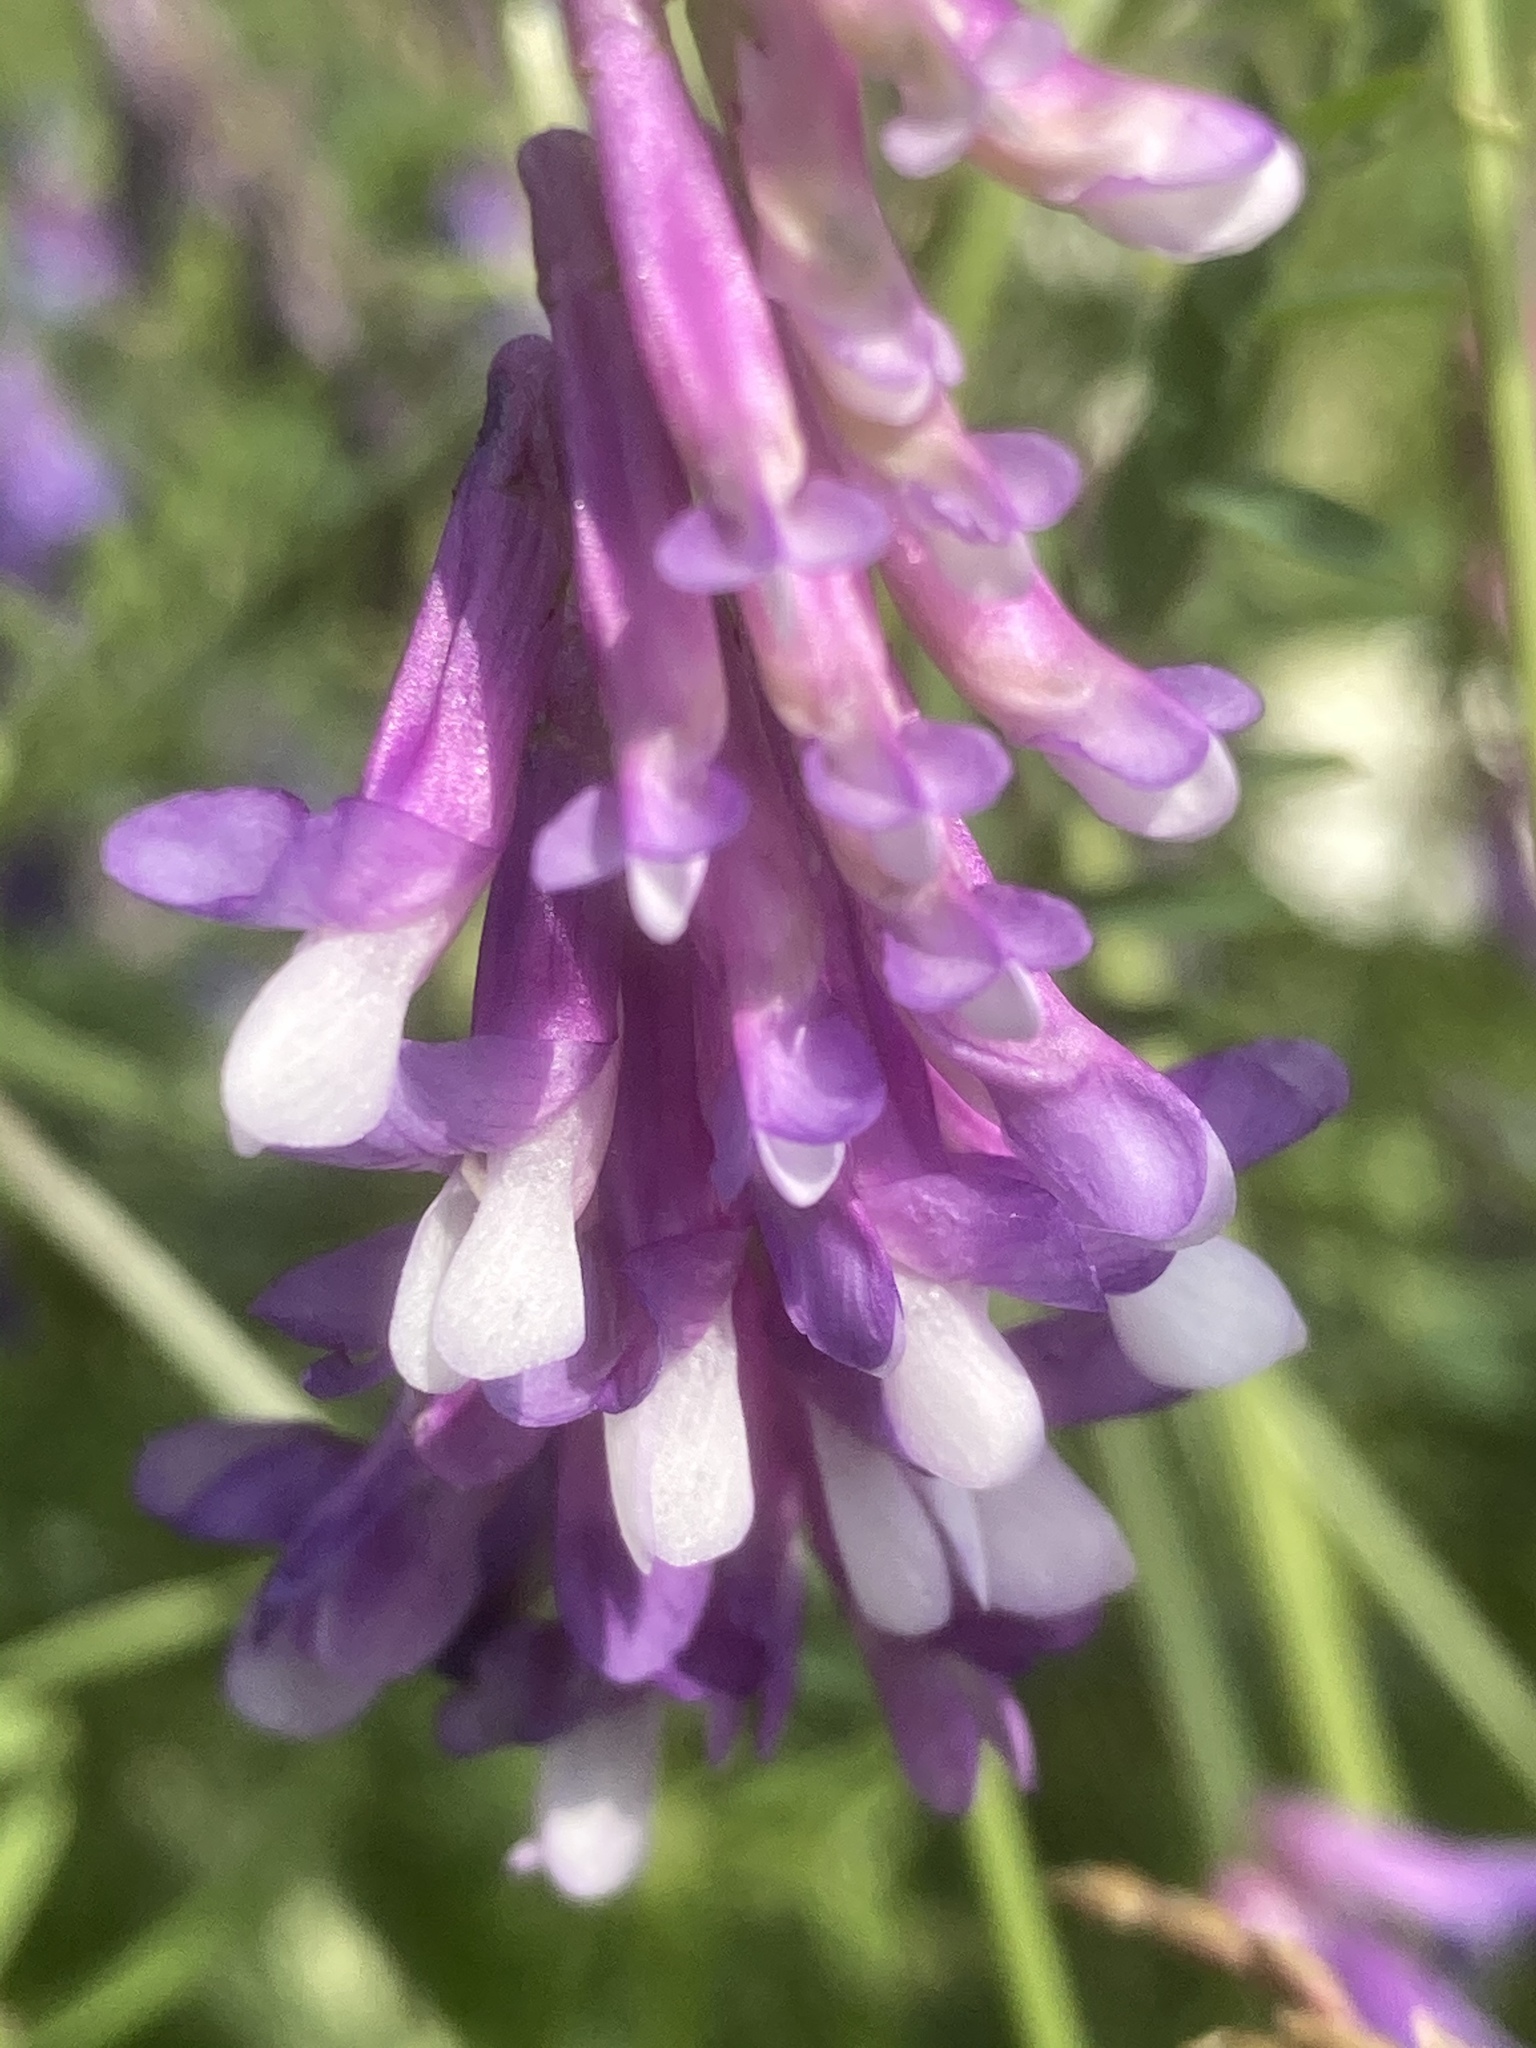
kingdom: Plantae
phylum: Tracheophyta
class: Magnoliopsida
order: Fabales
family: Fabaceae
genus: Vicia
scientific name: Vicia villosa
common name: Fodder vetch
